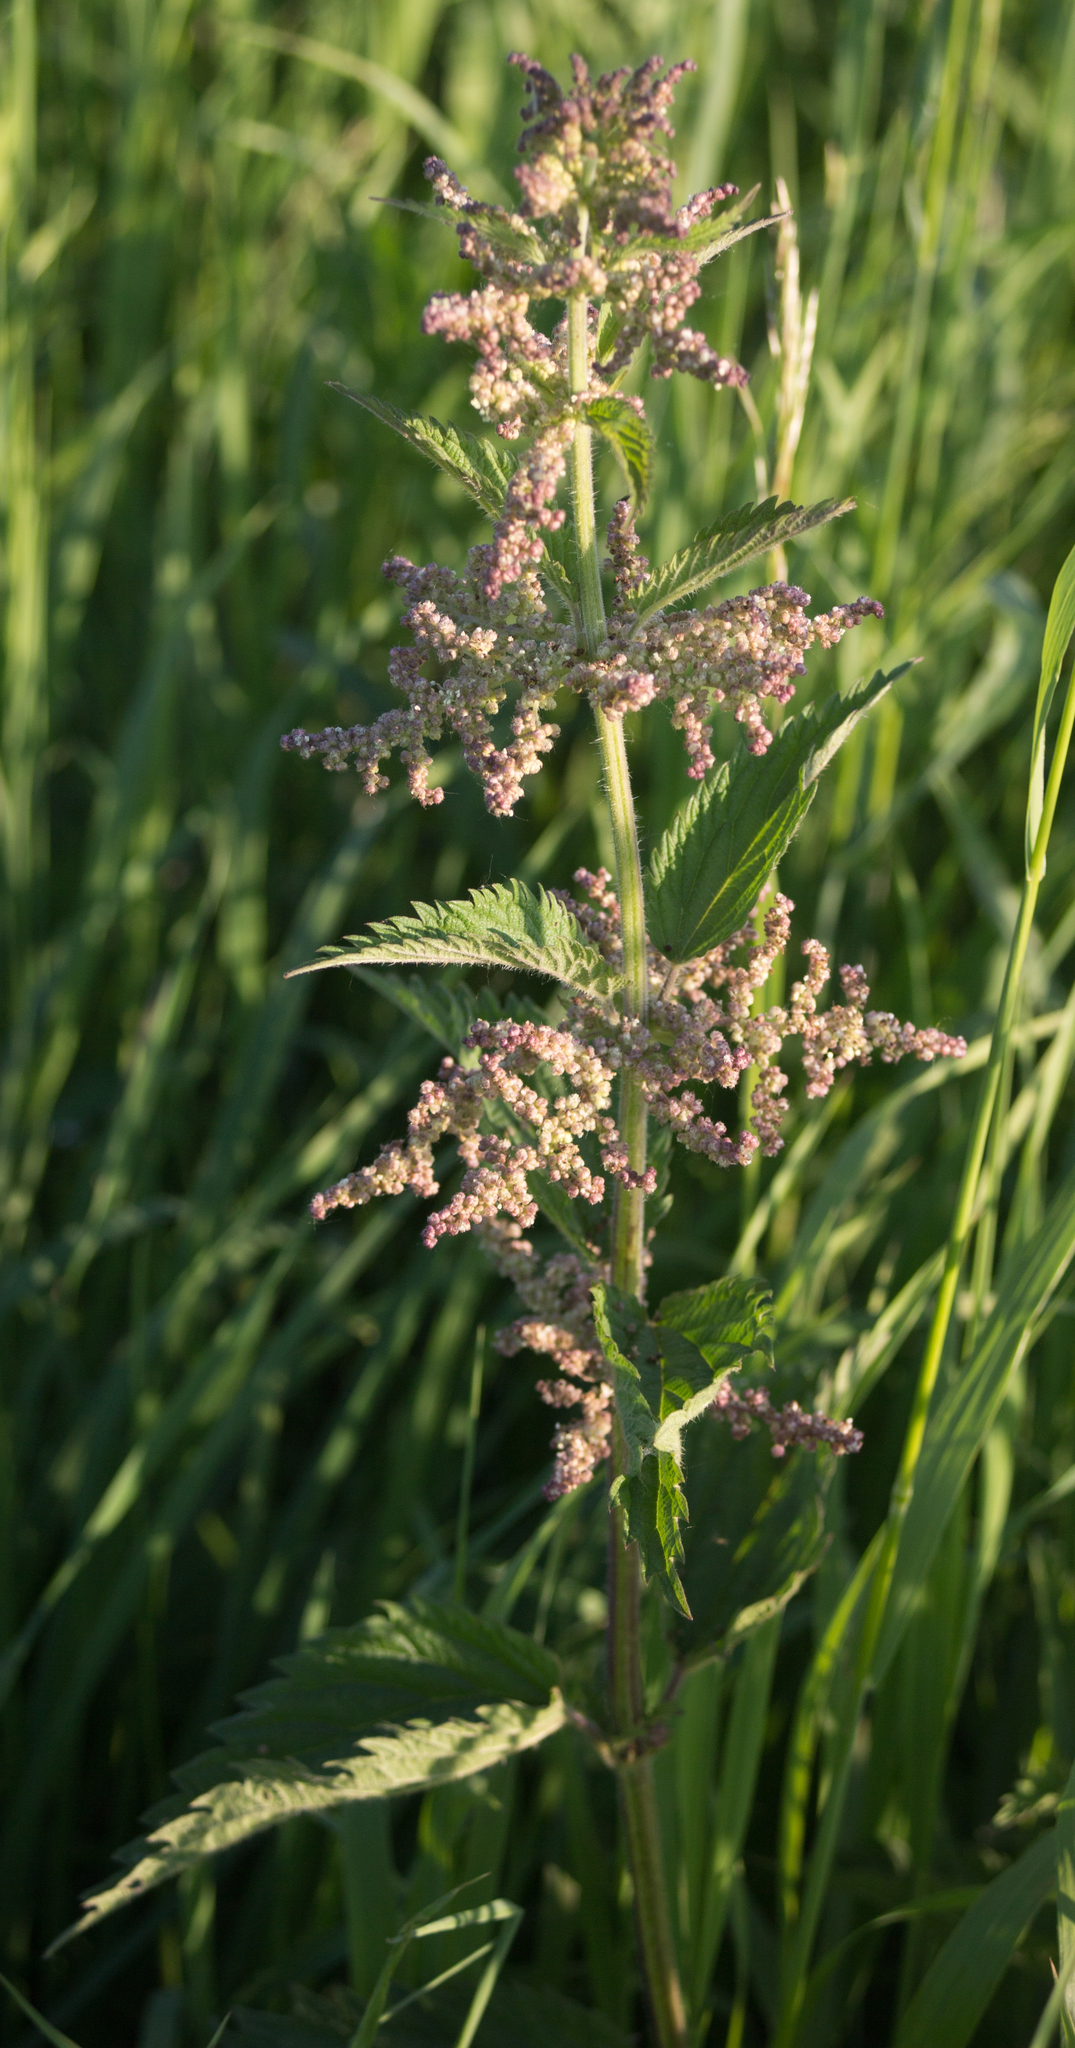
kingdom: Plantae
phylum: Tracheophyta
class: Magnoliopsida
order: Rosales
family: Urticaceae
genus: Urtica
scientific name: Urtica dioica
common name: Common nettle
